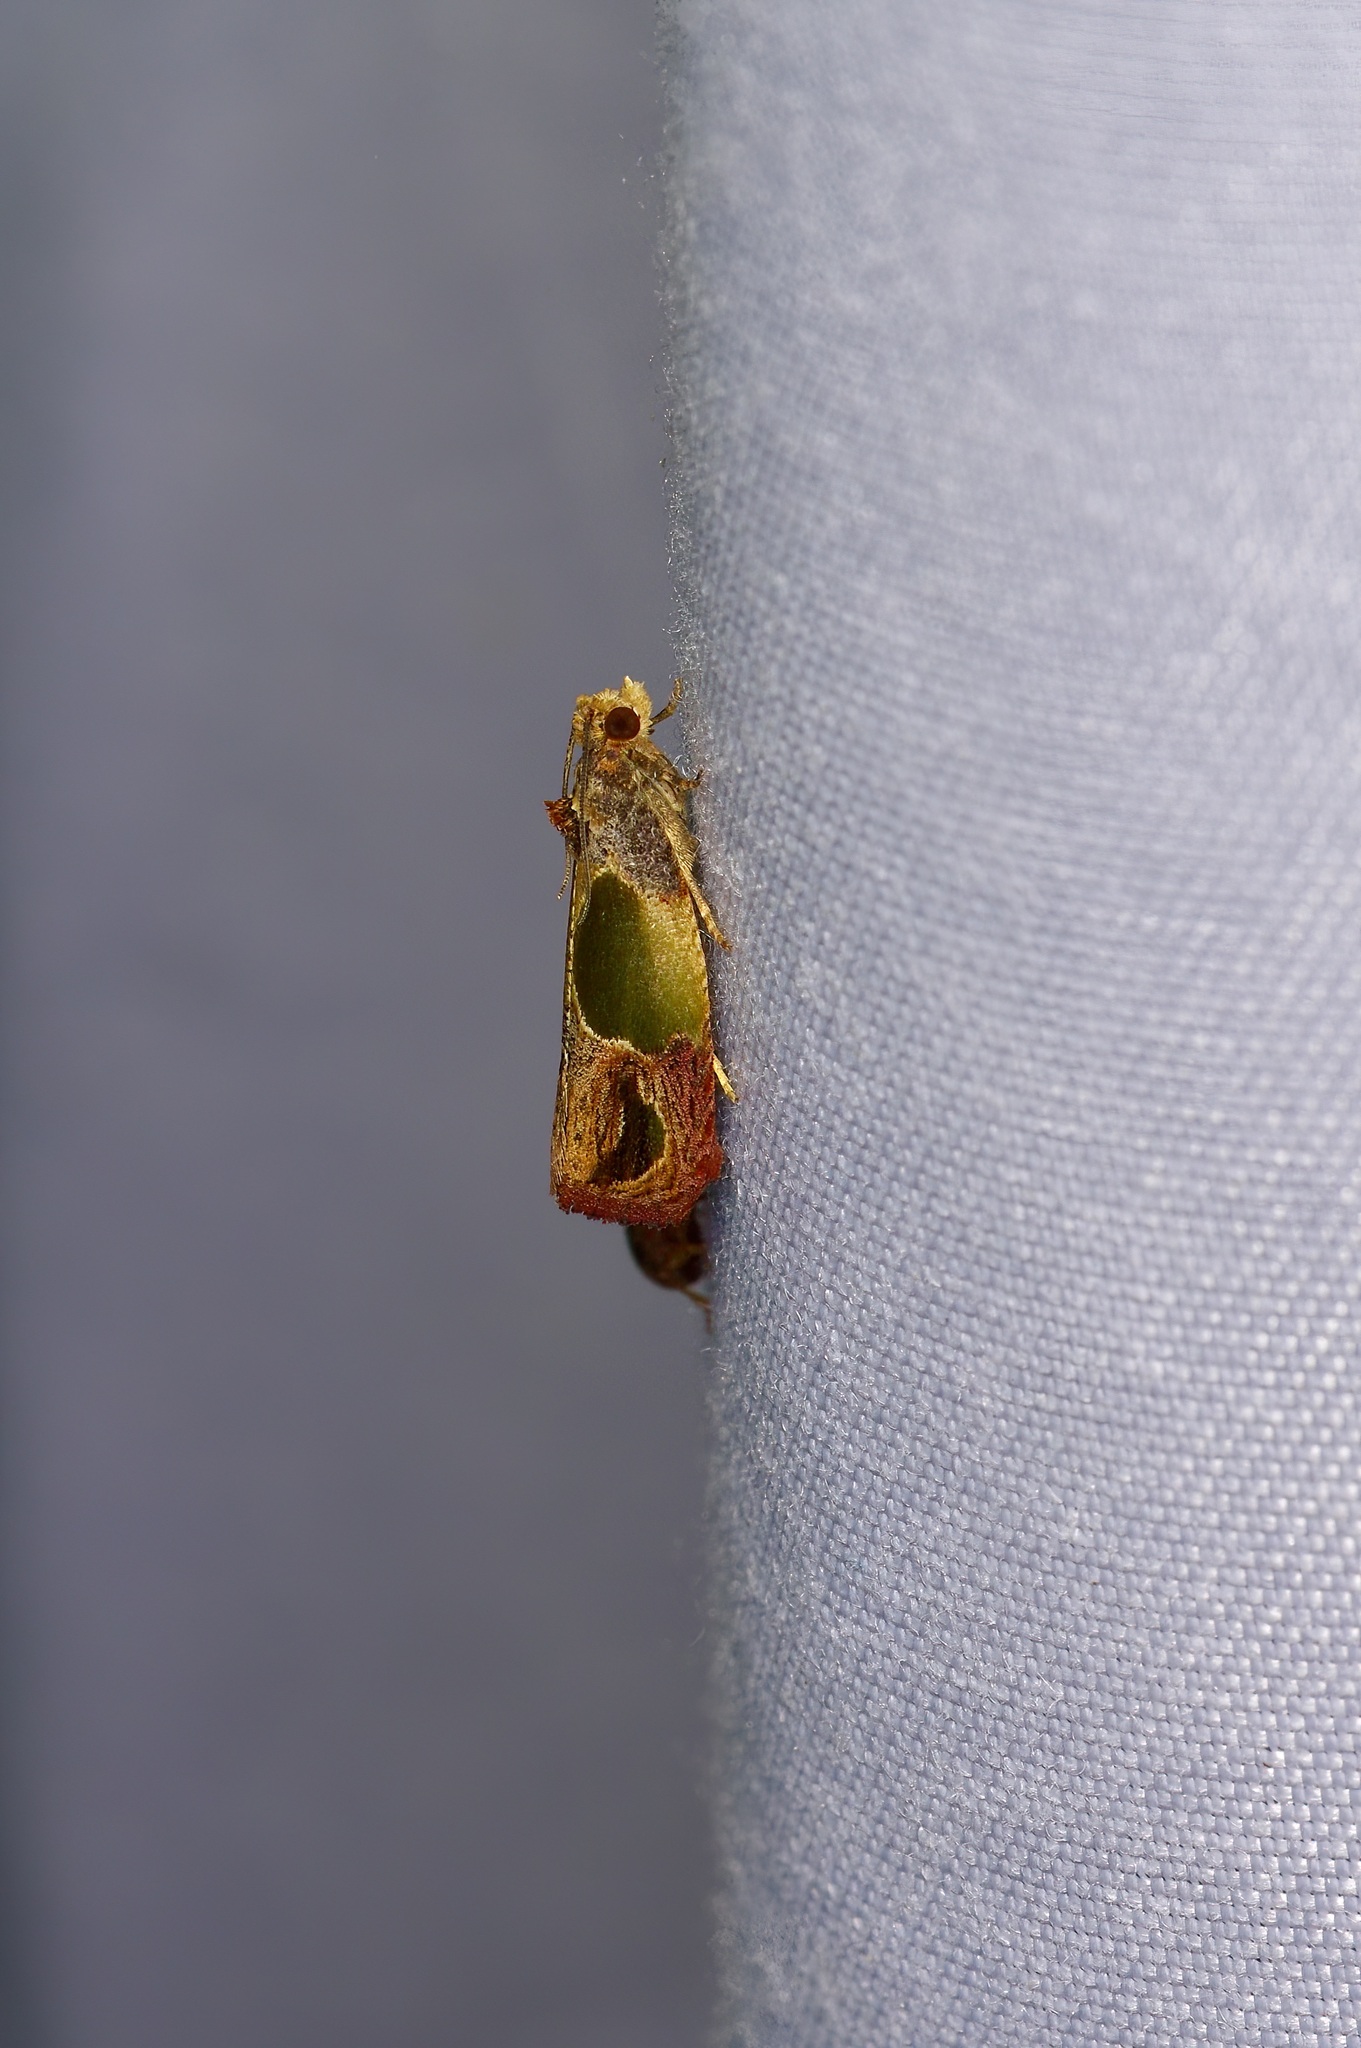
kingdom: Animalia
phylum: Arthropoda
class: Insecta
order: Lepidoptera
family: Tortricidae
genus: Eumarozia
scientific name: Eumarozia malachitana
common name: Sculptured moth
